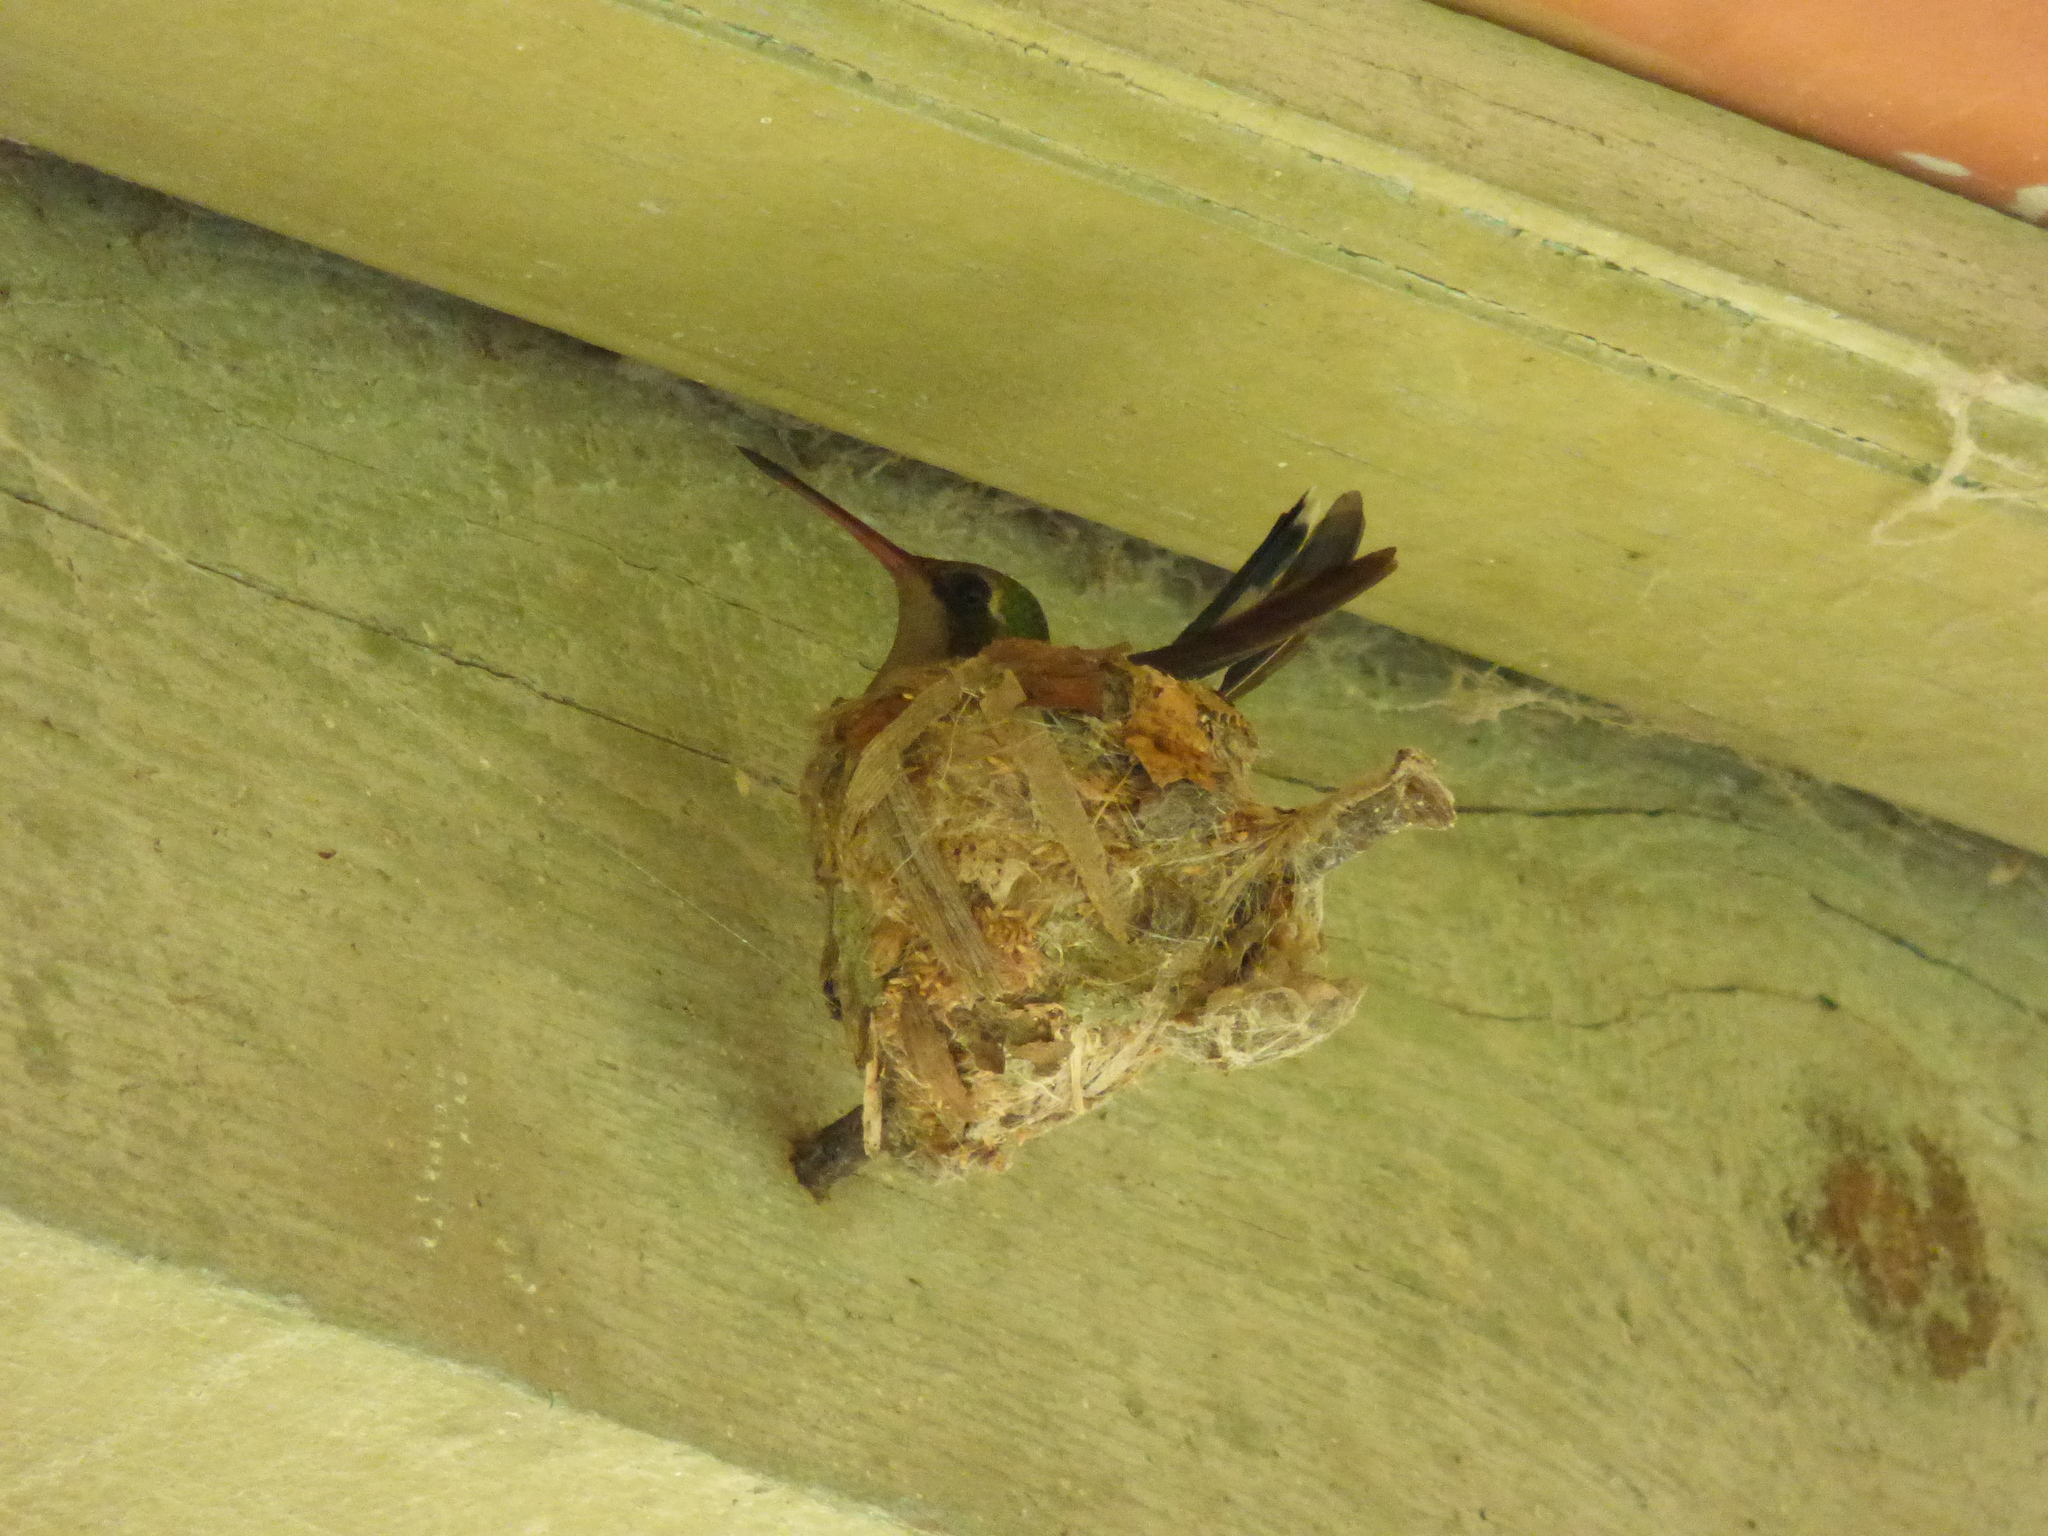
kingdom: Animalia
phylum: Chordata
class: Aves
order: Apodiformes
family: Trochilidae
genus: Chlorostilbon
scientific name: Chlorostilbon lucidus
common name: Glittering-bellied emerald
